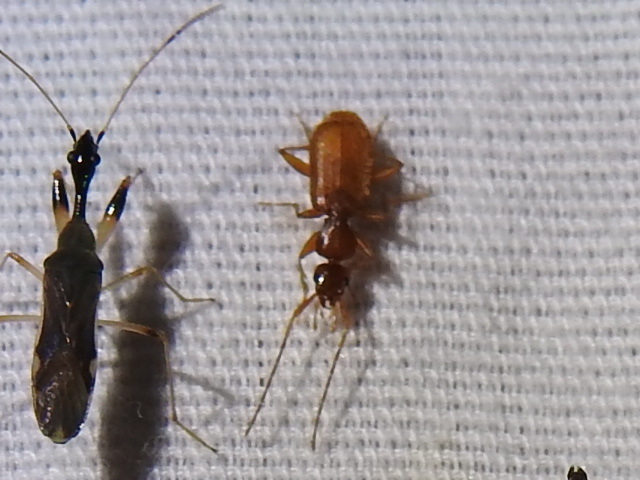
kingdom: Animalia
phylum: Arthropoda
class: Insecta
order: Coleoptera
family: Carabidae
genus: Zuphioides
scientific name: Zuphioides longicolle
